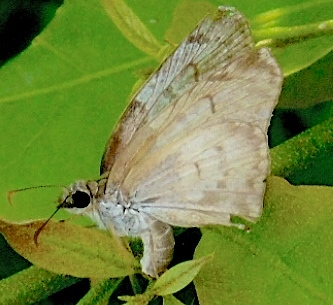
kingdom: Animalia
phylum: Arthropoda
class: Insecta
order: Lepidoptera
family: Hesperiidae
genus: Mylon
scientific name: Mylon pelopidas
